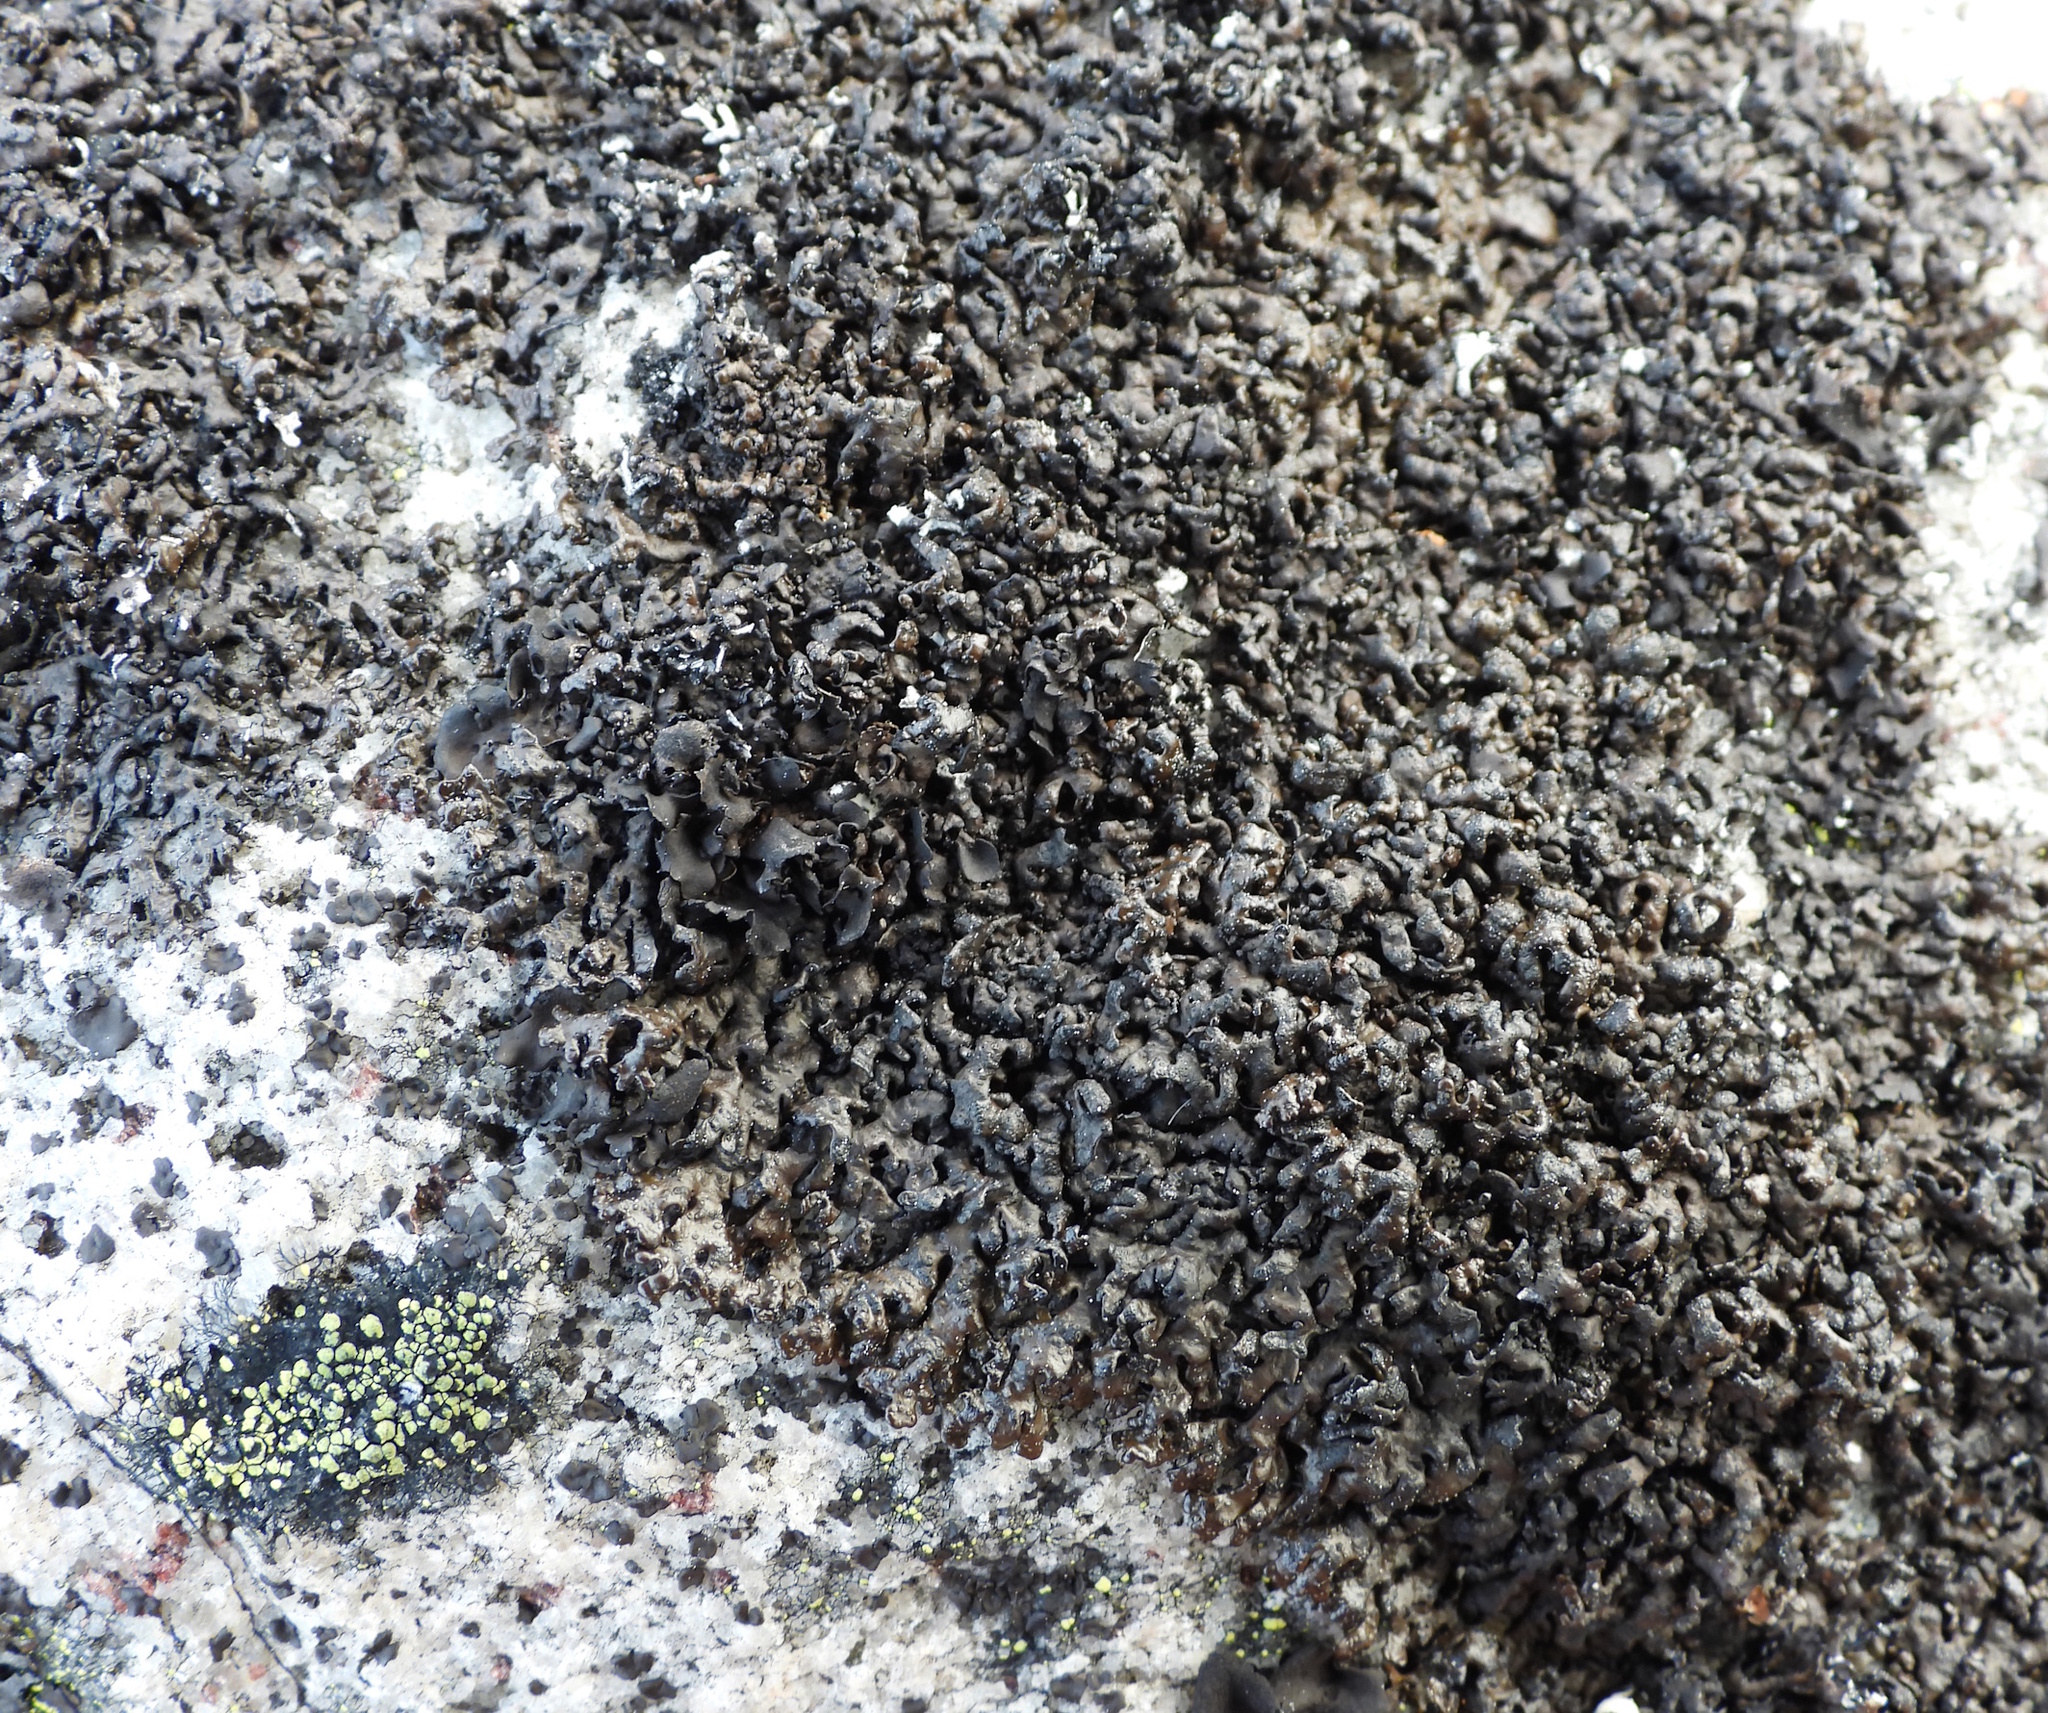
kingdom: Fungi
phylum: Ascomycota
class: Lecanoromycetes
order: Lecanorales
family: Parmeliaceae
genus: Melanelia
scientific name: Melanelia stygia
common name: Alpine camouflage lichen
